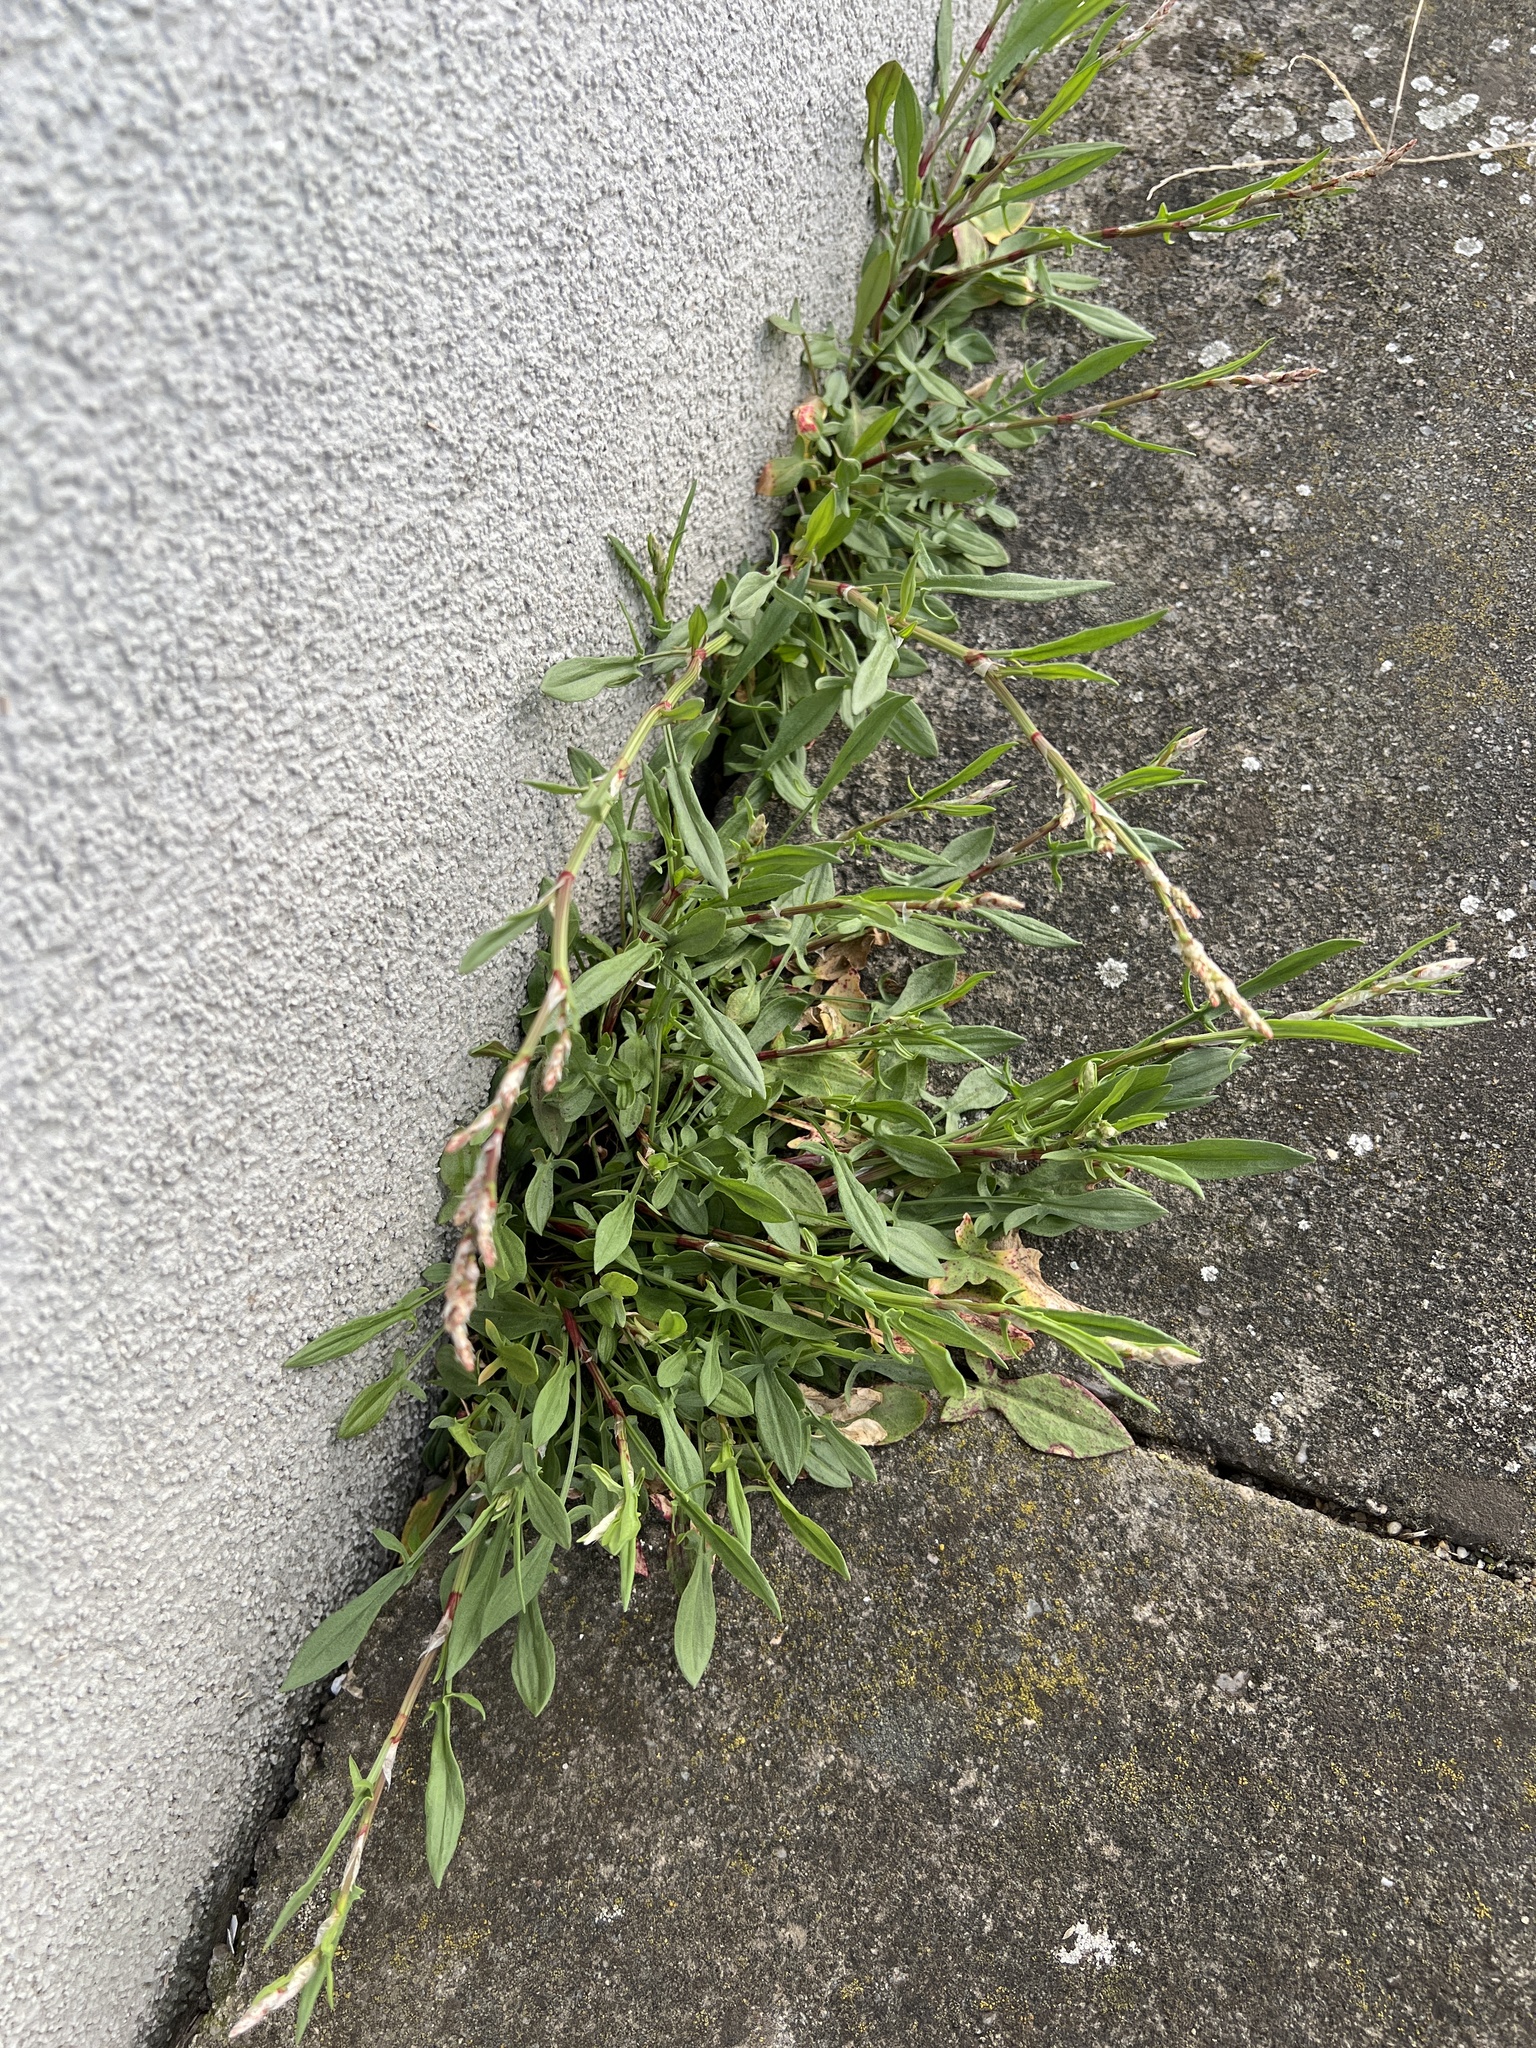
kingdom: Plantae
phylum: Tracheophyta
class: Magnoliopsida
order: Caryophyllales
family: Polygonaceae
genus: Rumex
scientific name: Rumex acetosella
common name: Common sheep sorrel
